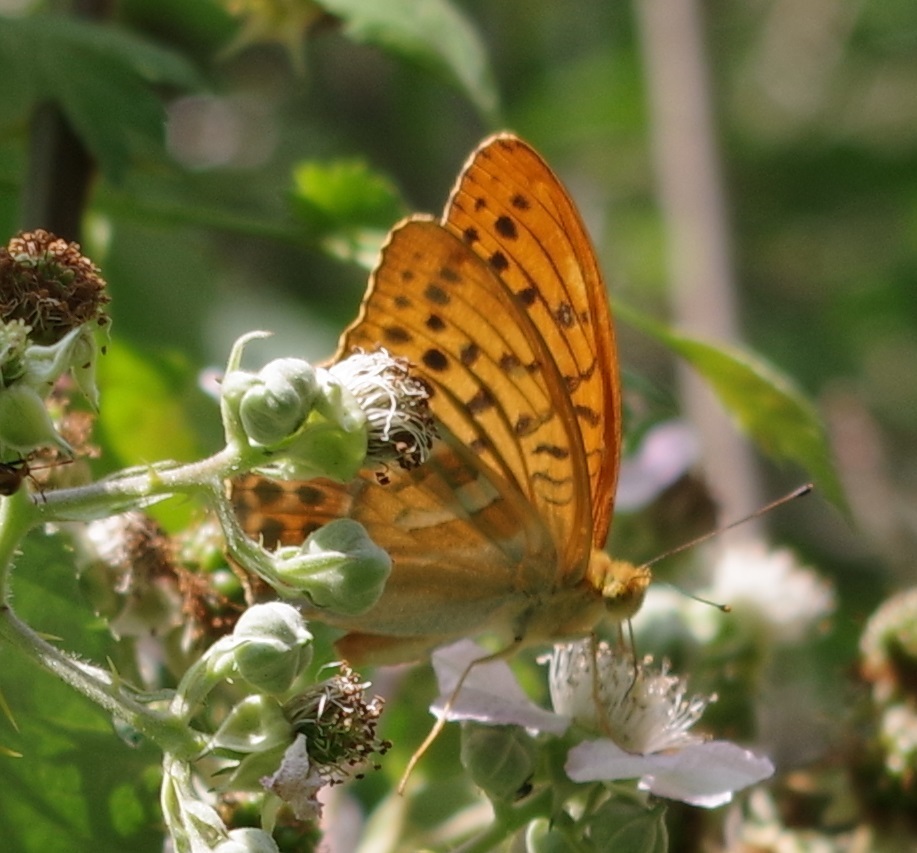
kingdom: Animalia
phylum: Arthropoda
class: Insecta
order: Lepidoptera
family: Nymphalidae
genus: Argynnis
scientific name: Argynnis paphia
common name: Silver-washed fritillary
